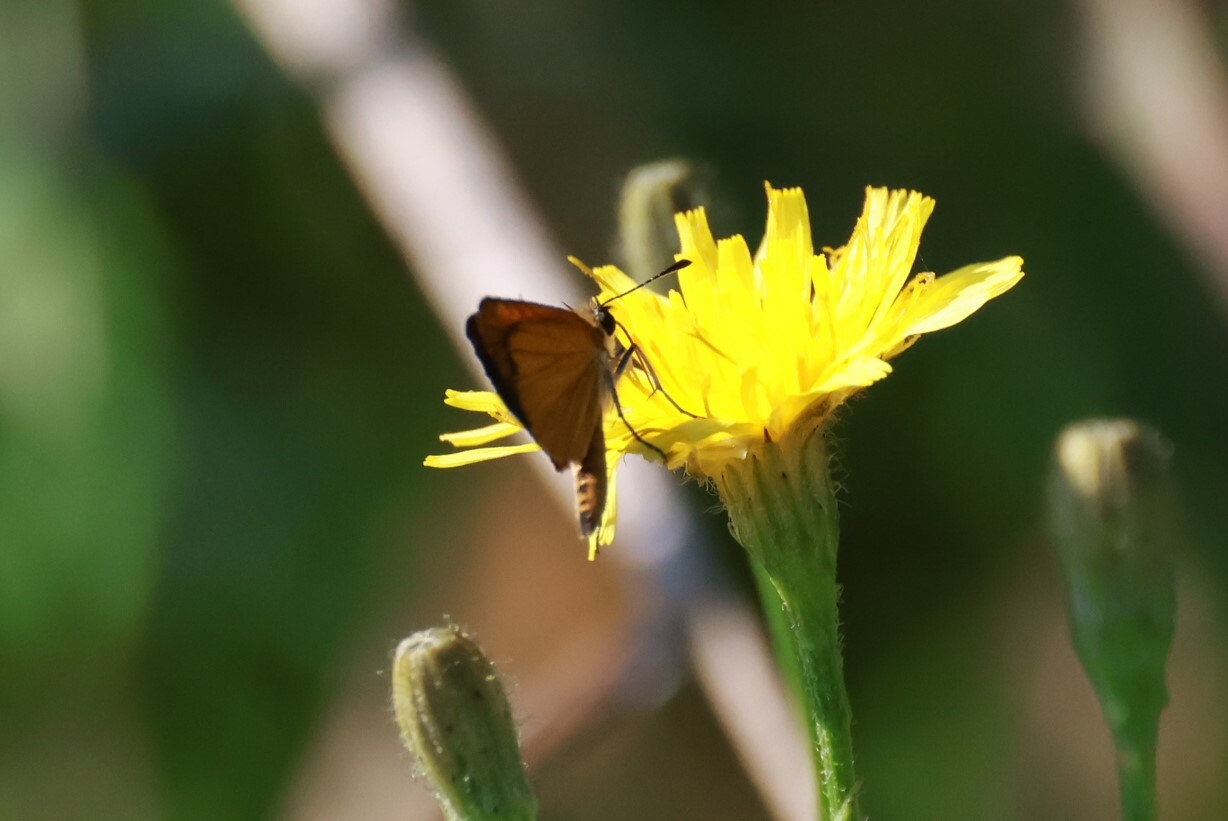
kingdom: Animalia
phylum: Arthropoda
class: Insecta
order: Lepidoptera
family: Hesperiidae
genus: Ancyloxypha
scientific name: Ancyloxypha numitor
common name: Least skipper
